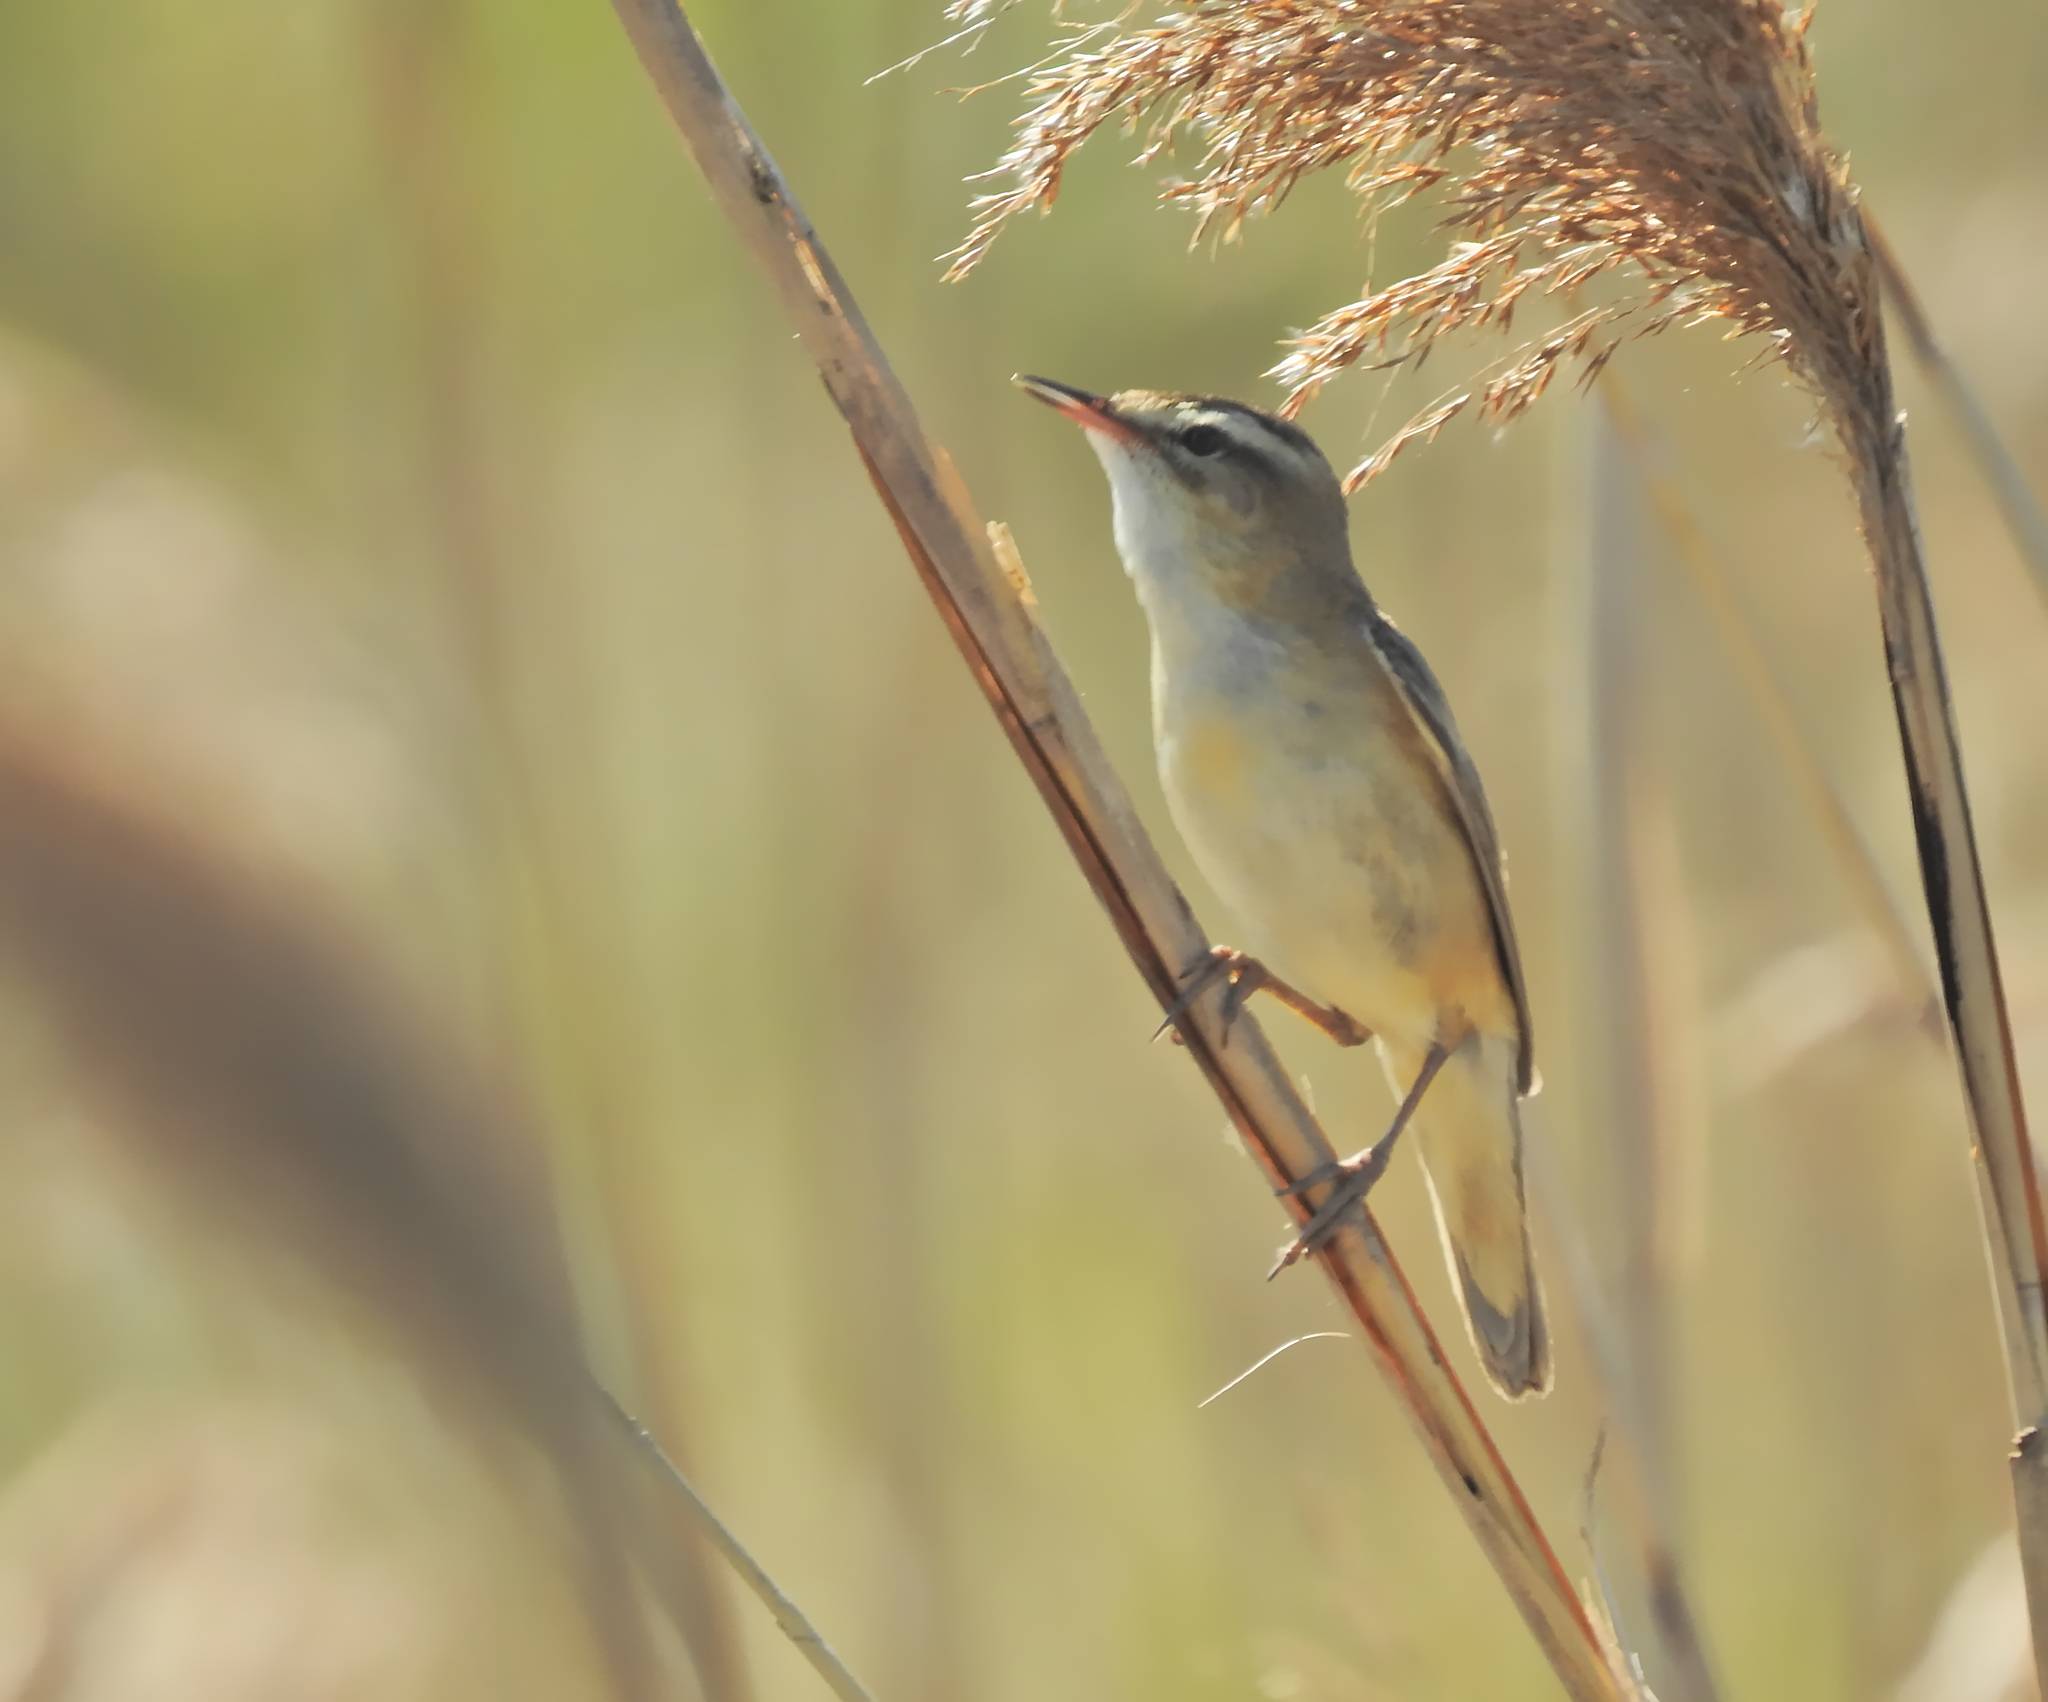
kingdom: Animalia
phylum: Chordata
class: Aves
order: Passeriformes
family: Acrocephalidae
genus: Acrocephalus
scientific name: Acrocephalus schoenobaenus
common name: Sedge warbler
